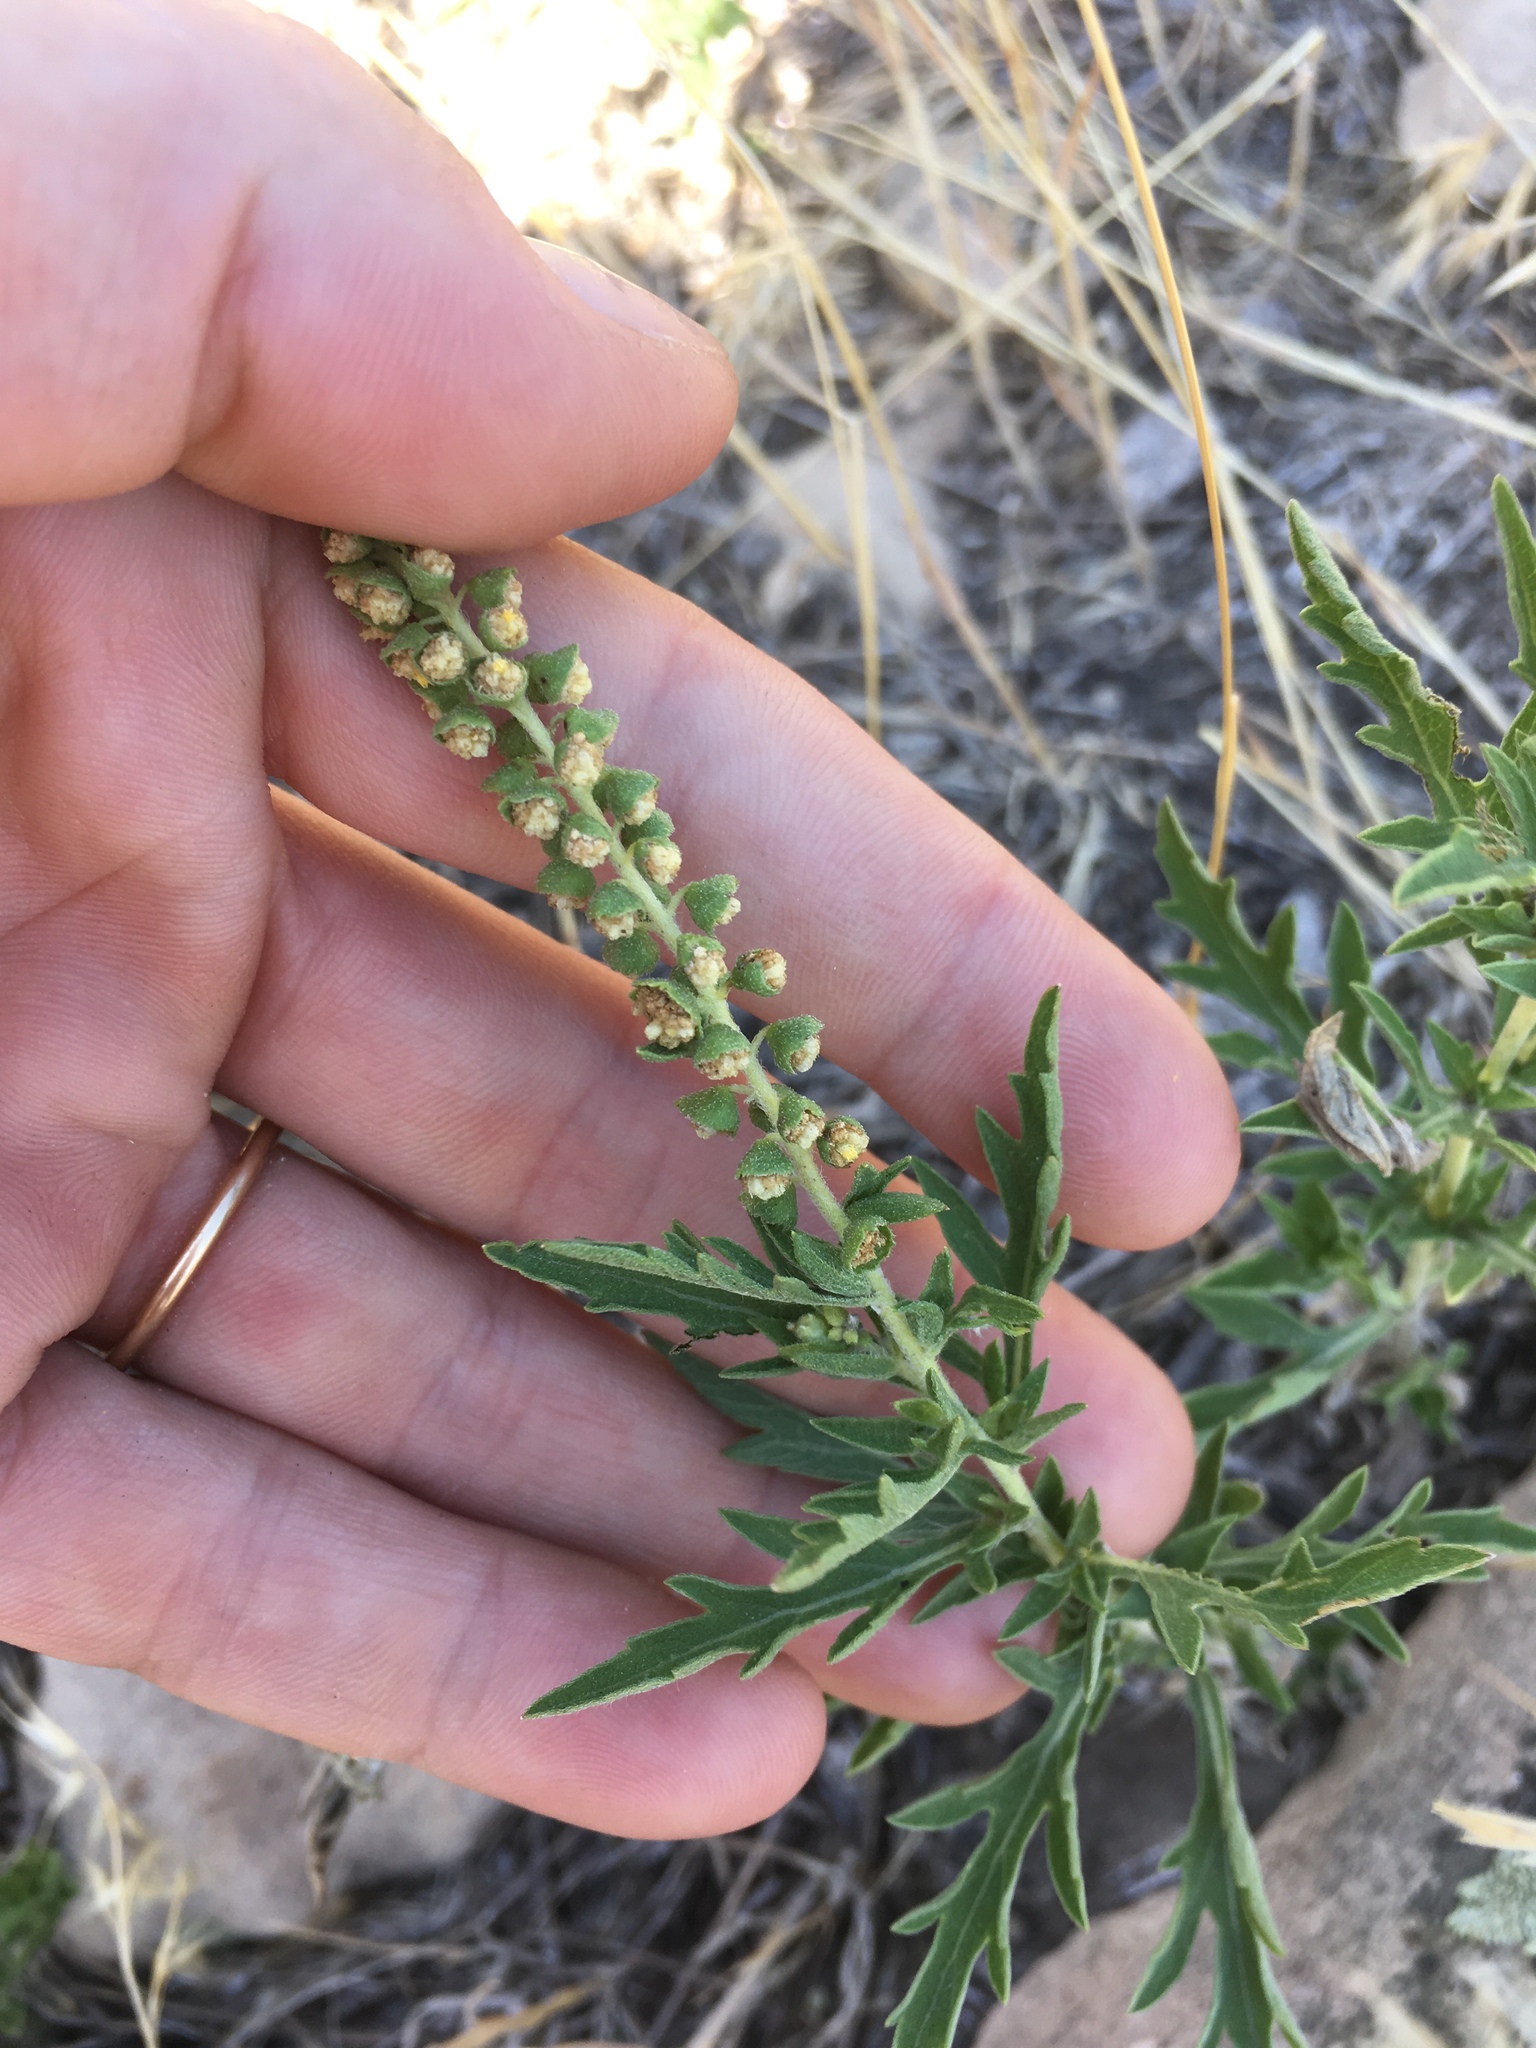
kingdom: Plantae
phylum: Tracheophyta
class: Magnoliopsida
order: Asterales
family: Asteraceae
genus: Ambrosia
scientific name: Ambrosia psilostachya
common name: Perennial ragweed
